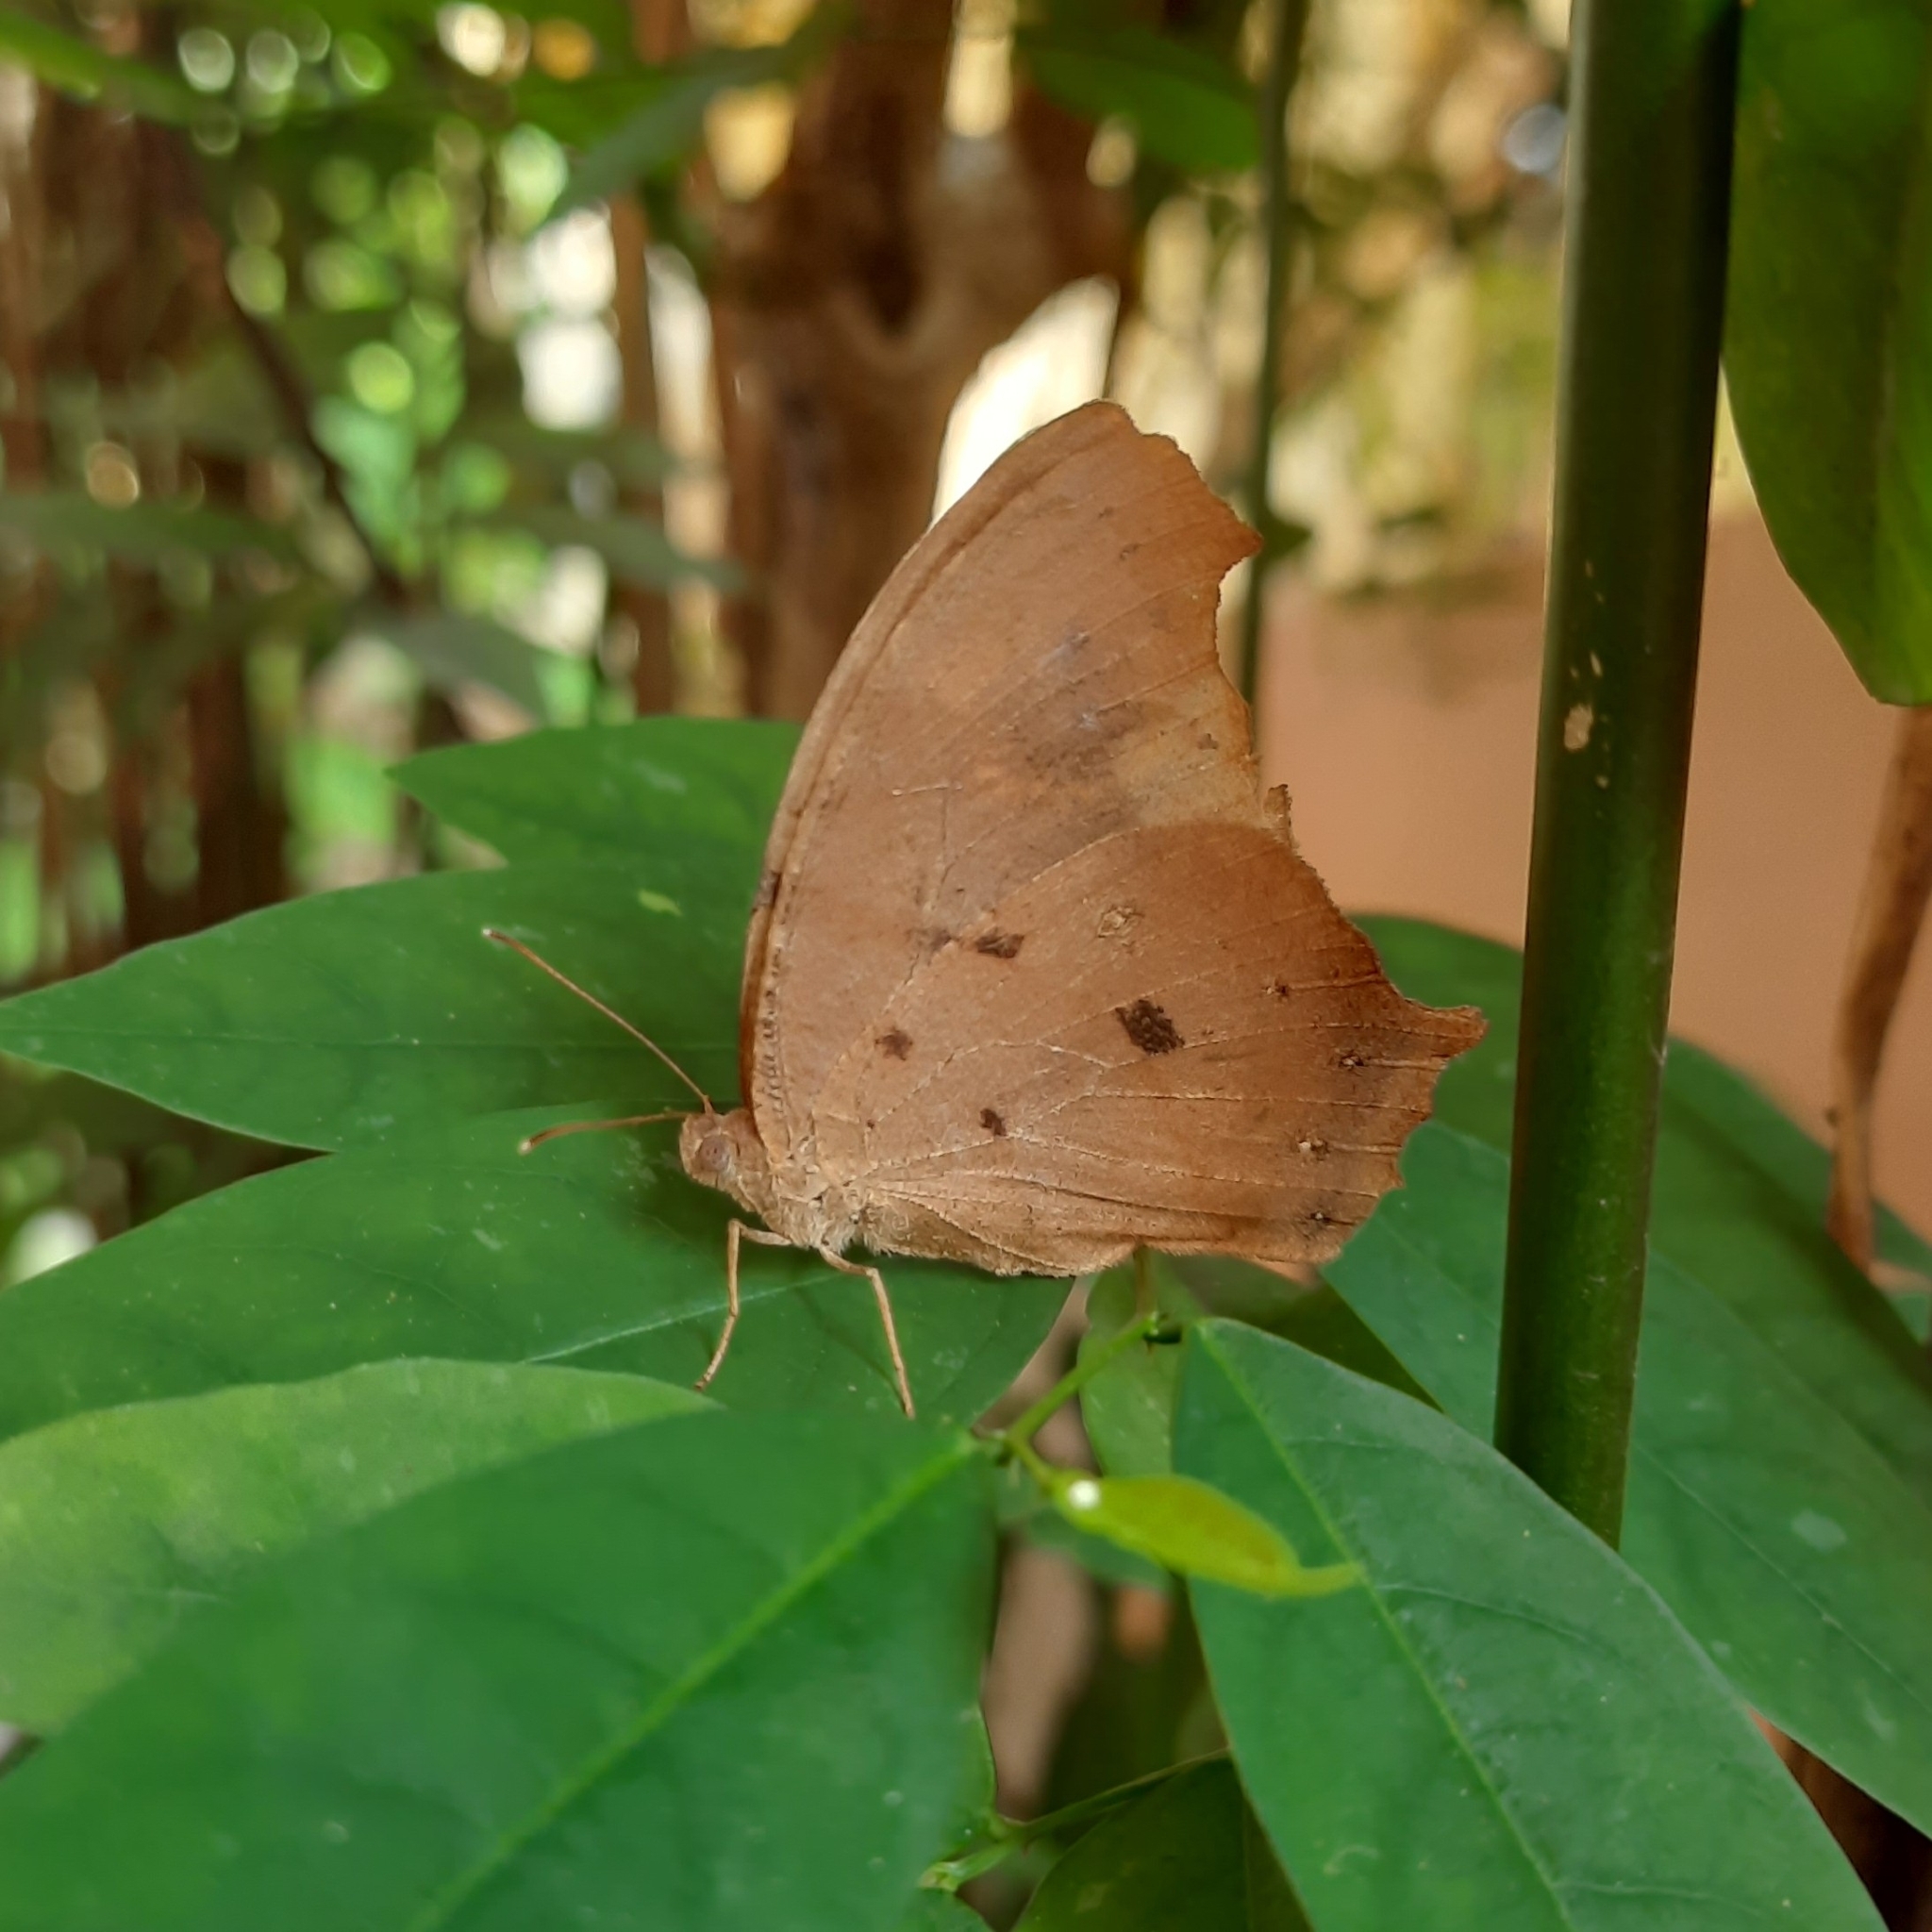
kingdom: Animalia
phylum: Arthropoda
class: Insecta
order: Lepidoptera
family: Nymphalidae
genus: Melanitis
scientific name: Melanitis leda
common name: Twilight brown
